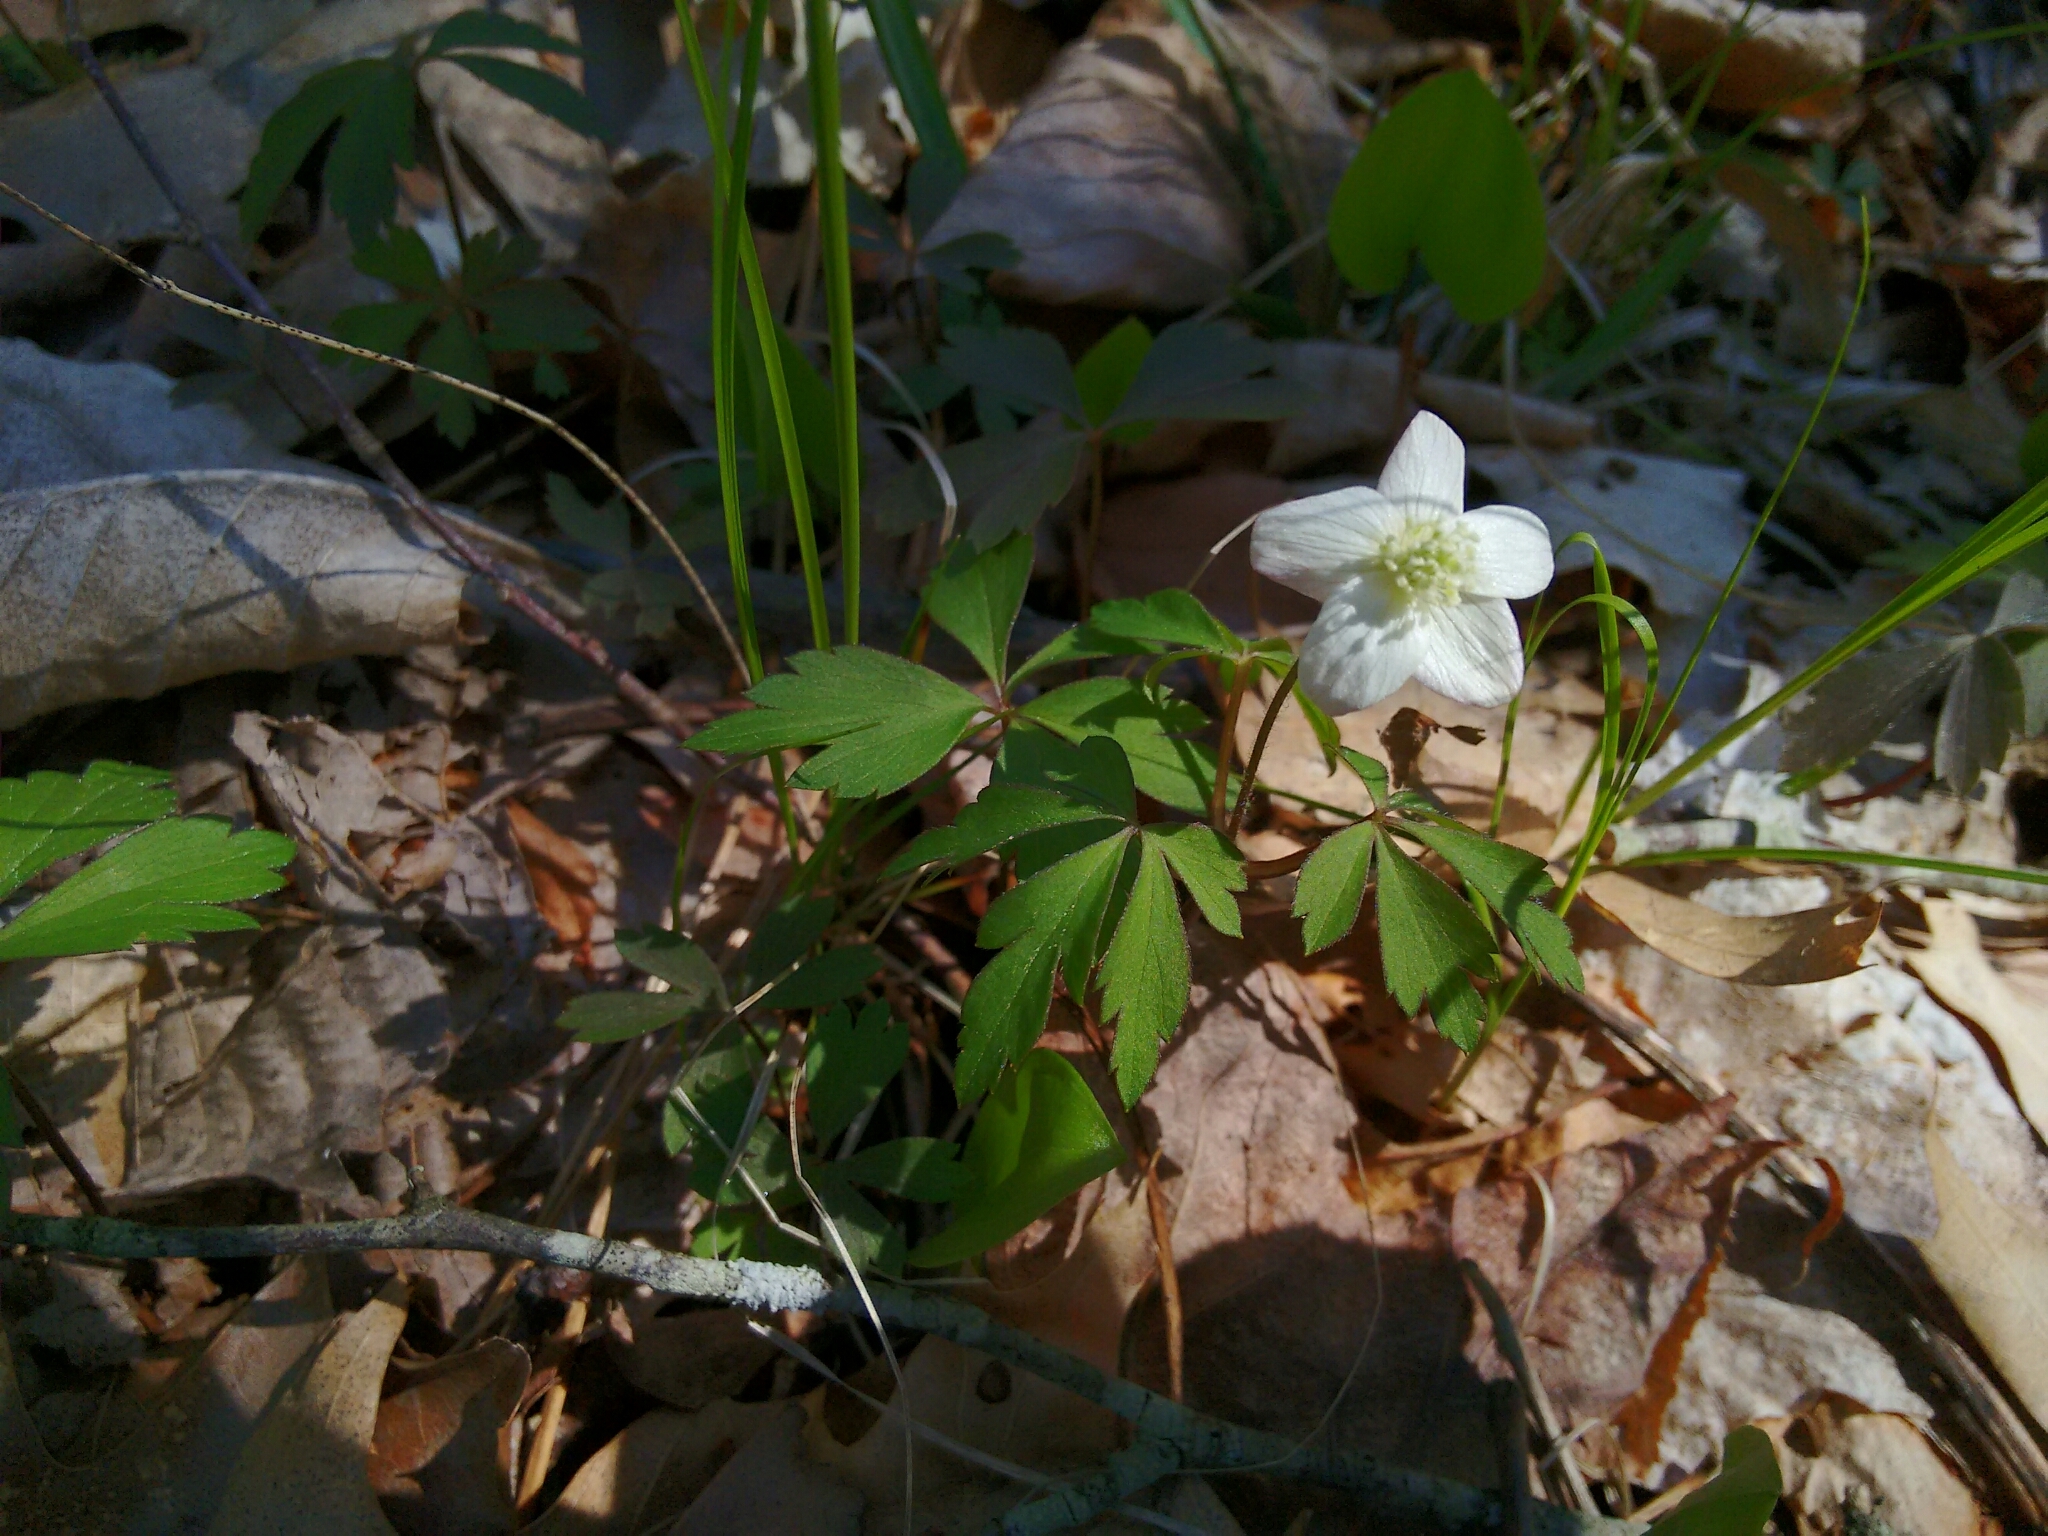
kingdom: Plantae
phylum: Tracheophyta
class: Magnoliopsida
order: Ranunculales
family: Ranunculaceae
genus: Anemone
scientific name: Anemone quinquefolia
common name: Wood anemone
